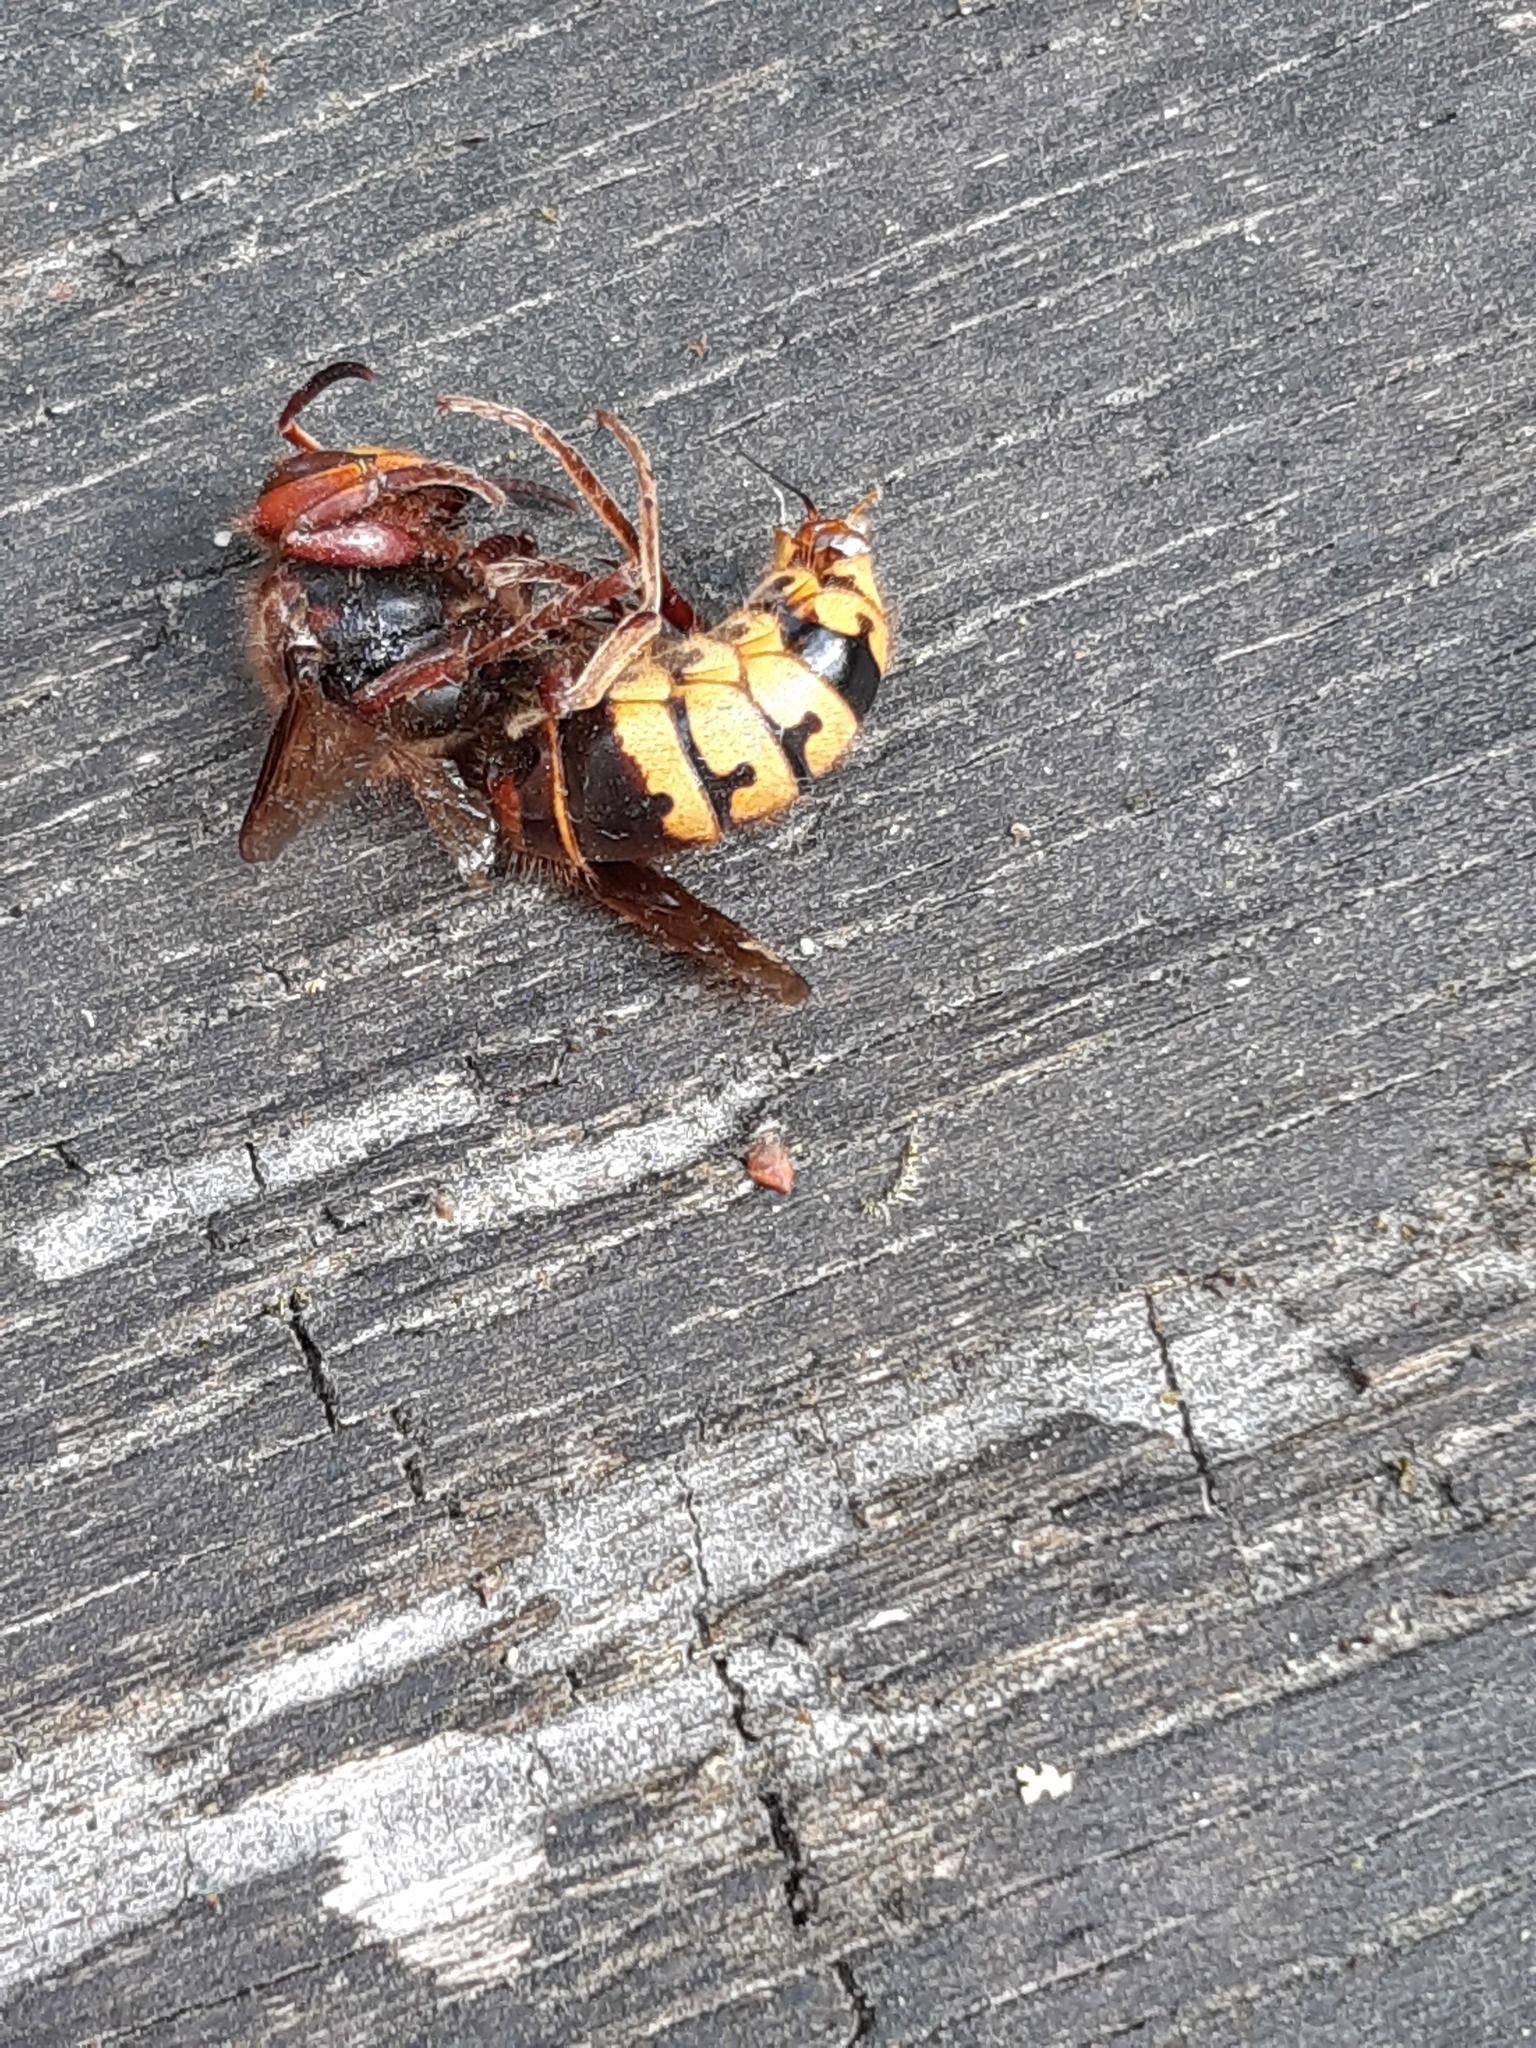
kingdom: Animalia
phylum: Arthropoda
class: Insecta
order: Hymenoptera
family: Vespidae
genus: Vespa
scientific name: Vespa crabro
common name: Hornet
